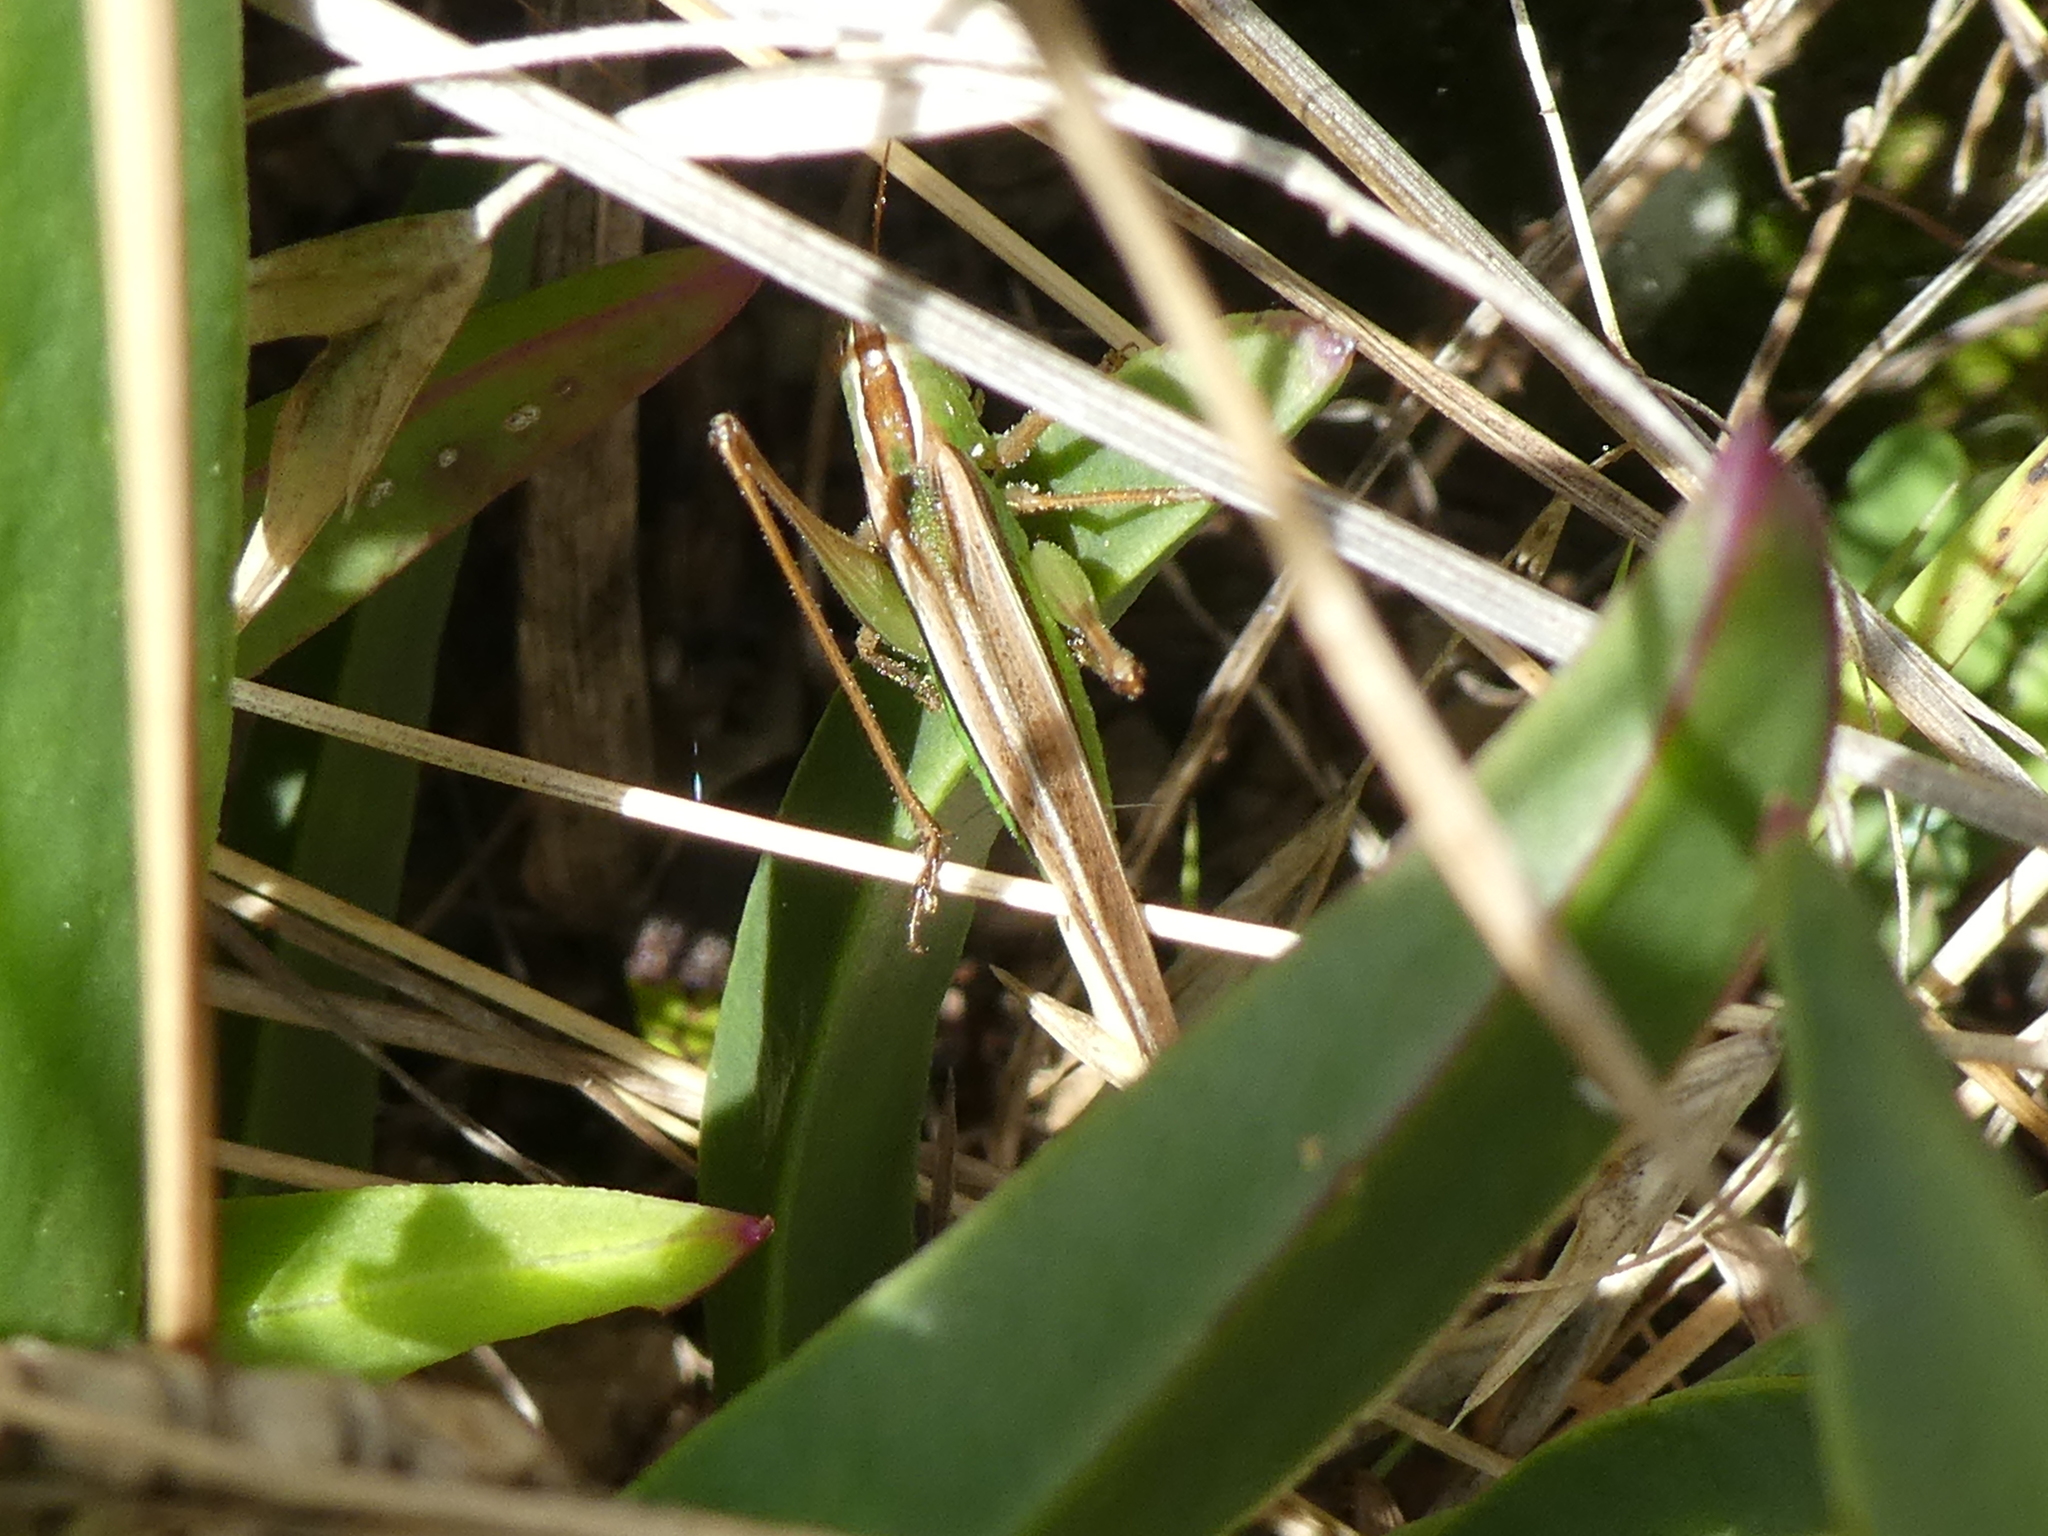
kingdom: Animalia
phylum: Arthropoda
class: Insecta
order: Orthoptera
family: Tettigoniidae
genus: Conocephalus
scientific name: Conocephalus albescens
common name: Whitish meadow katydid
